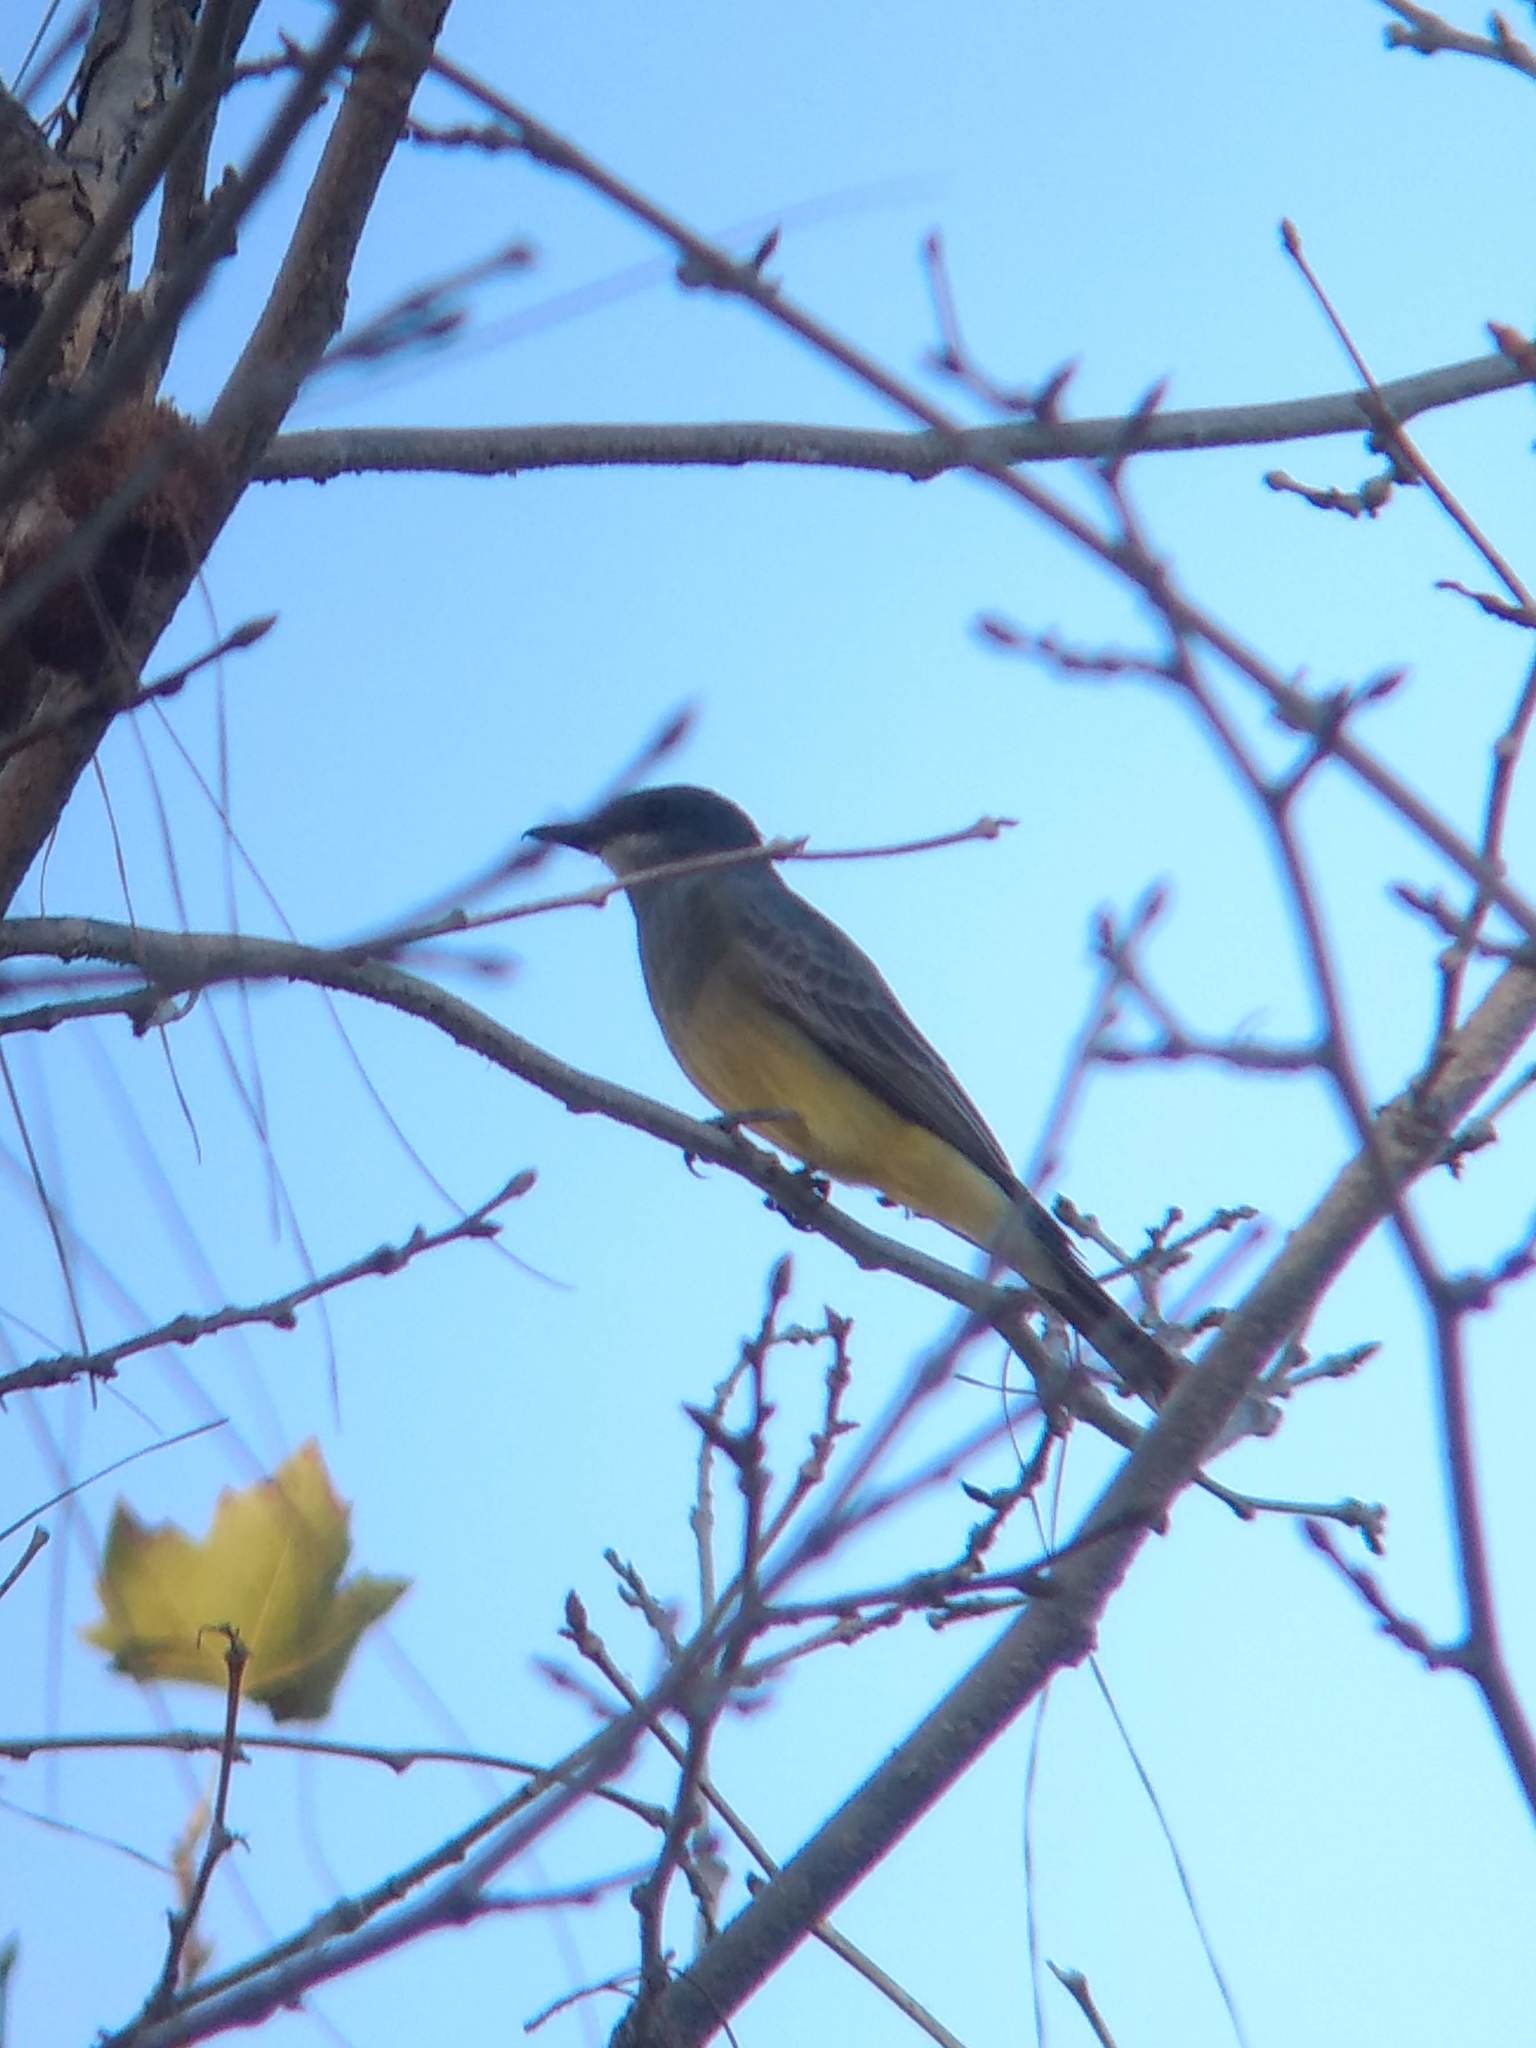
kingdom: Animalia
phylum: Chordata
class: Aves
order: Passeriformes
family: Tyrannidae
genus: Tyrannus
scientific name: Tyrannus vociferans
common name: Cassin's kingbird
